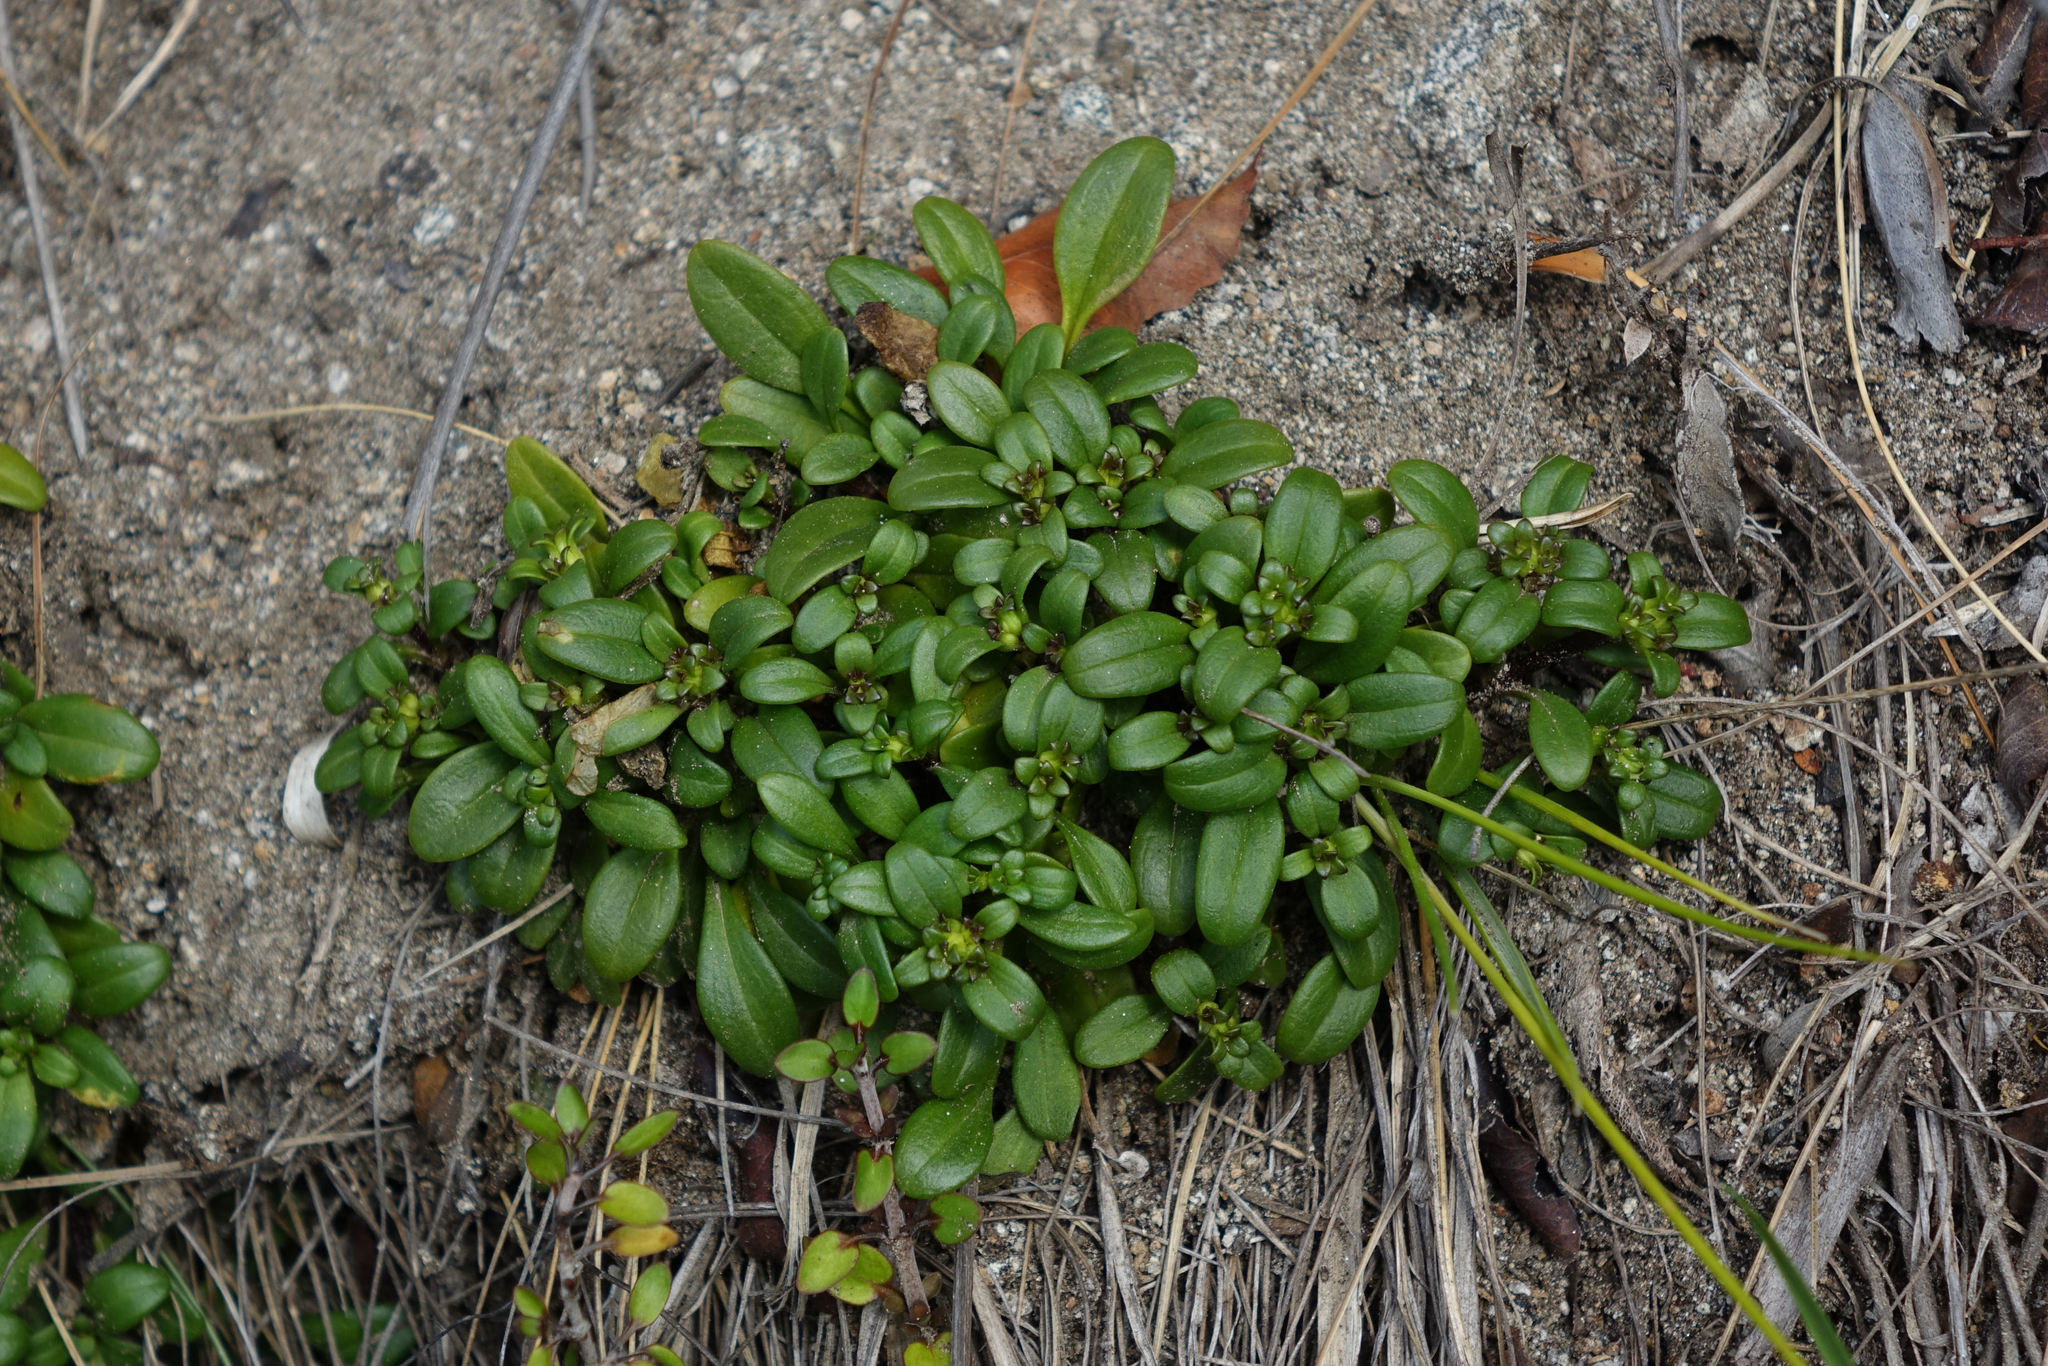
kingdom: Plantae
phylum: Tracheophyta
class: Magnoliopsida
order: Gentianales
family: Gentianaceae
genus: Gentianella
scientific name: Gentianella saxosa
